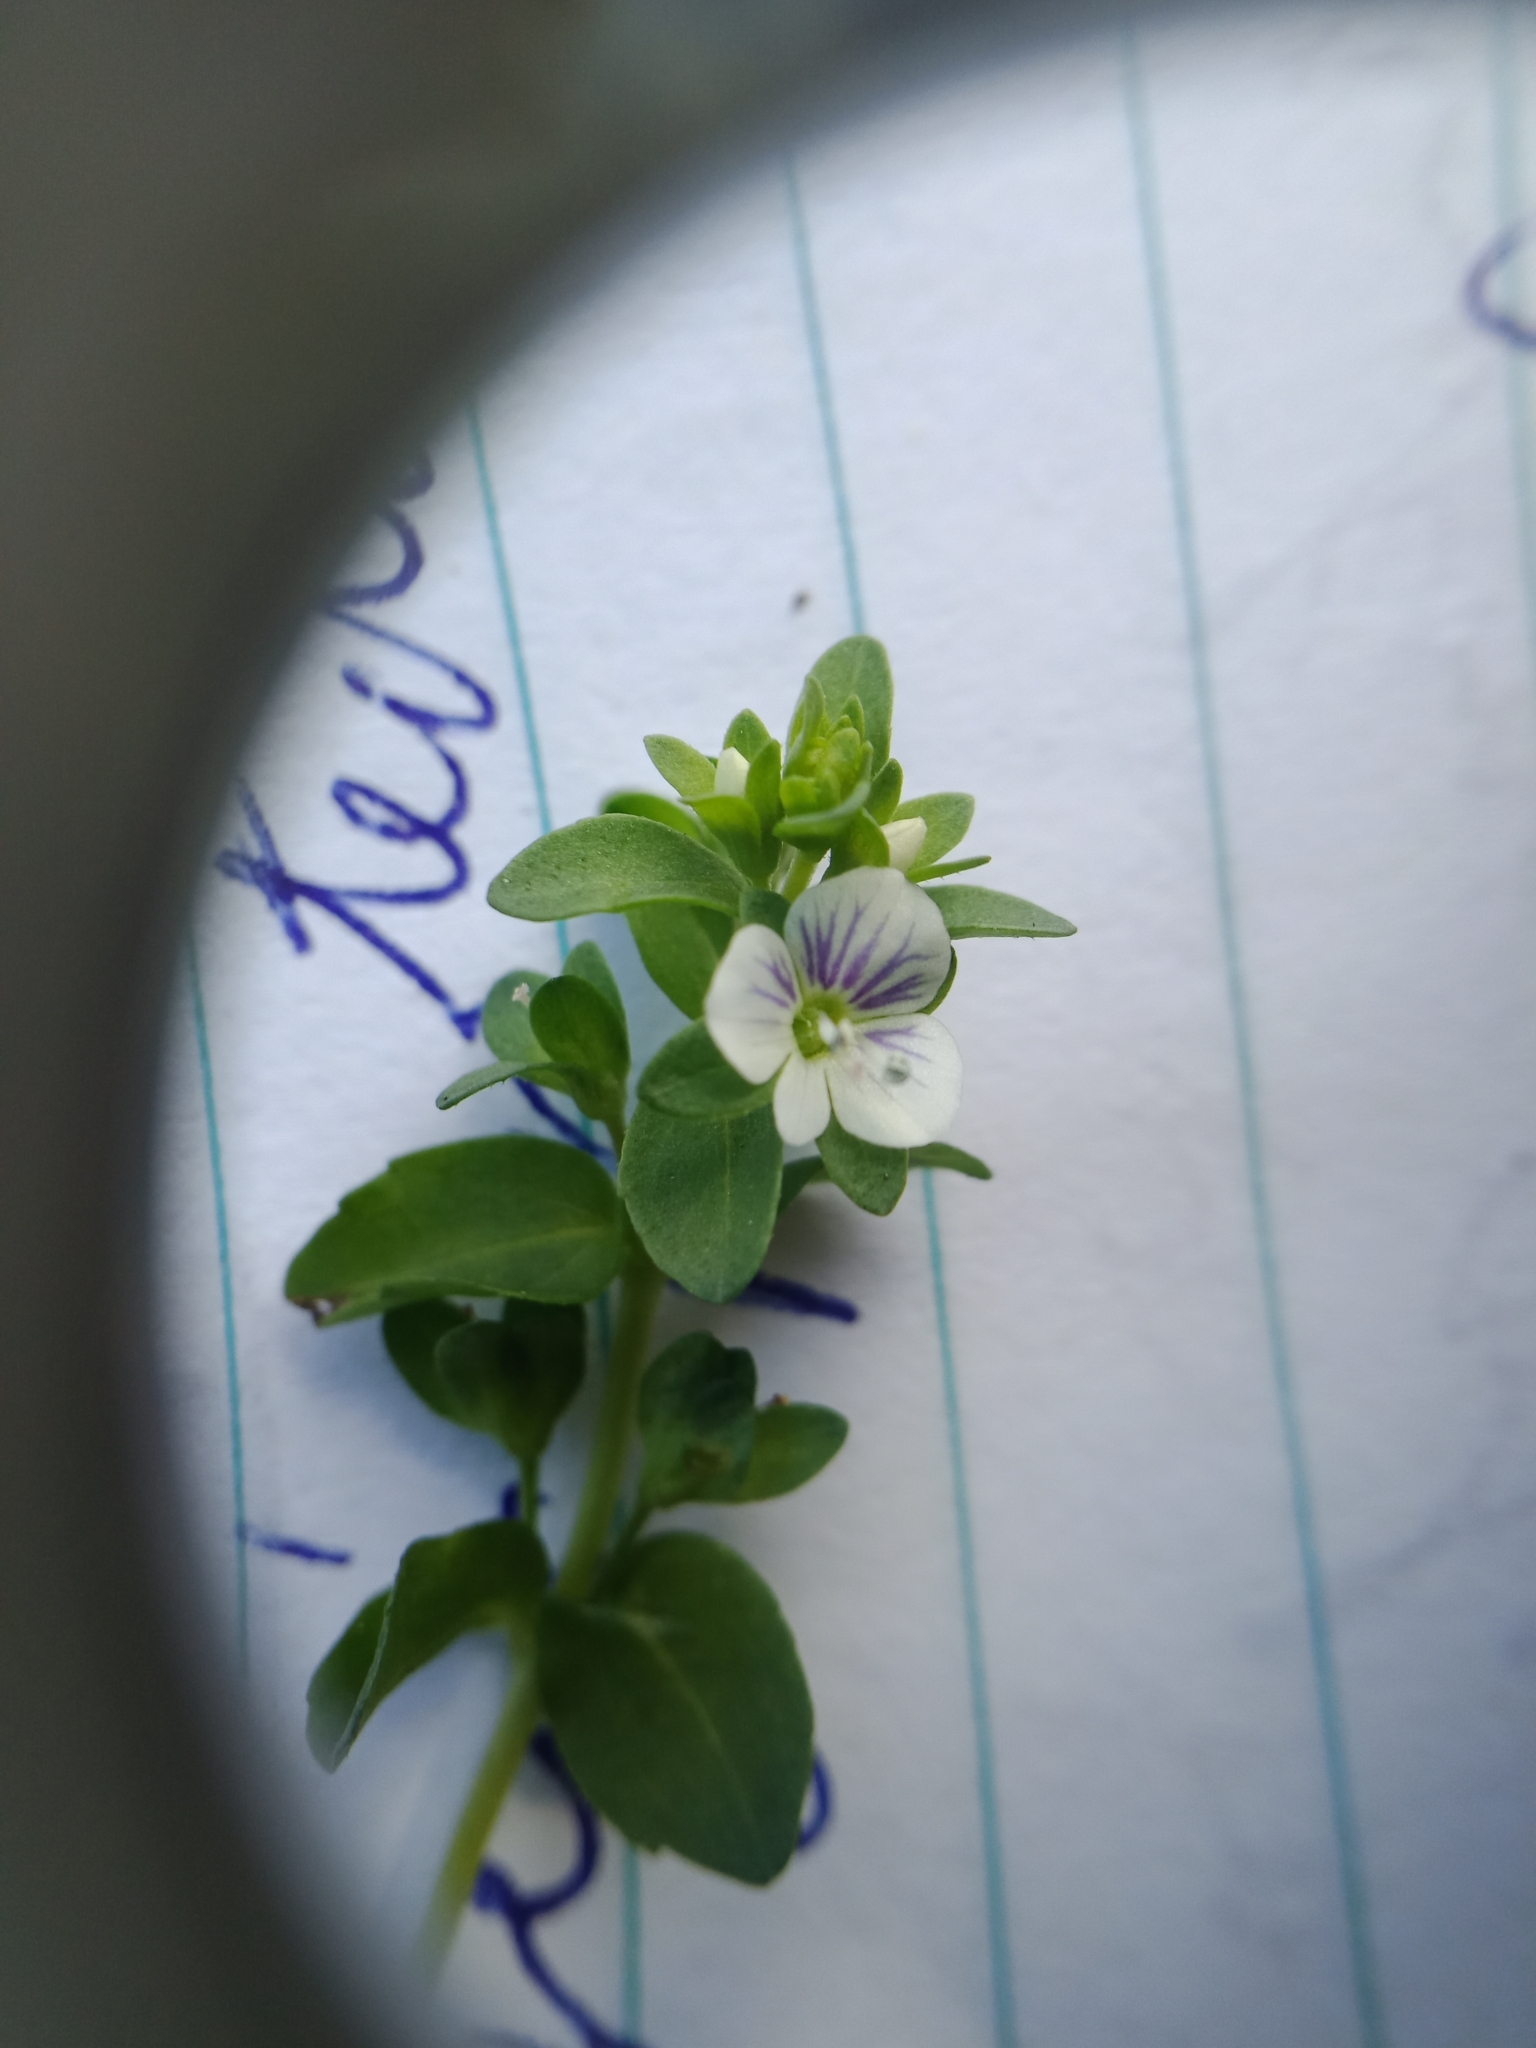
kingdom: Plantae
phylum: Tracheophyta
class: Magnoliopsida
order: Lamiales
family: Plantaginaceae
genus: Veronica
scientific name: Veronica serpyllifolia
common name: Thyme-leaved speedwell
